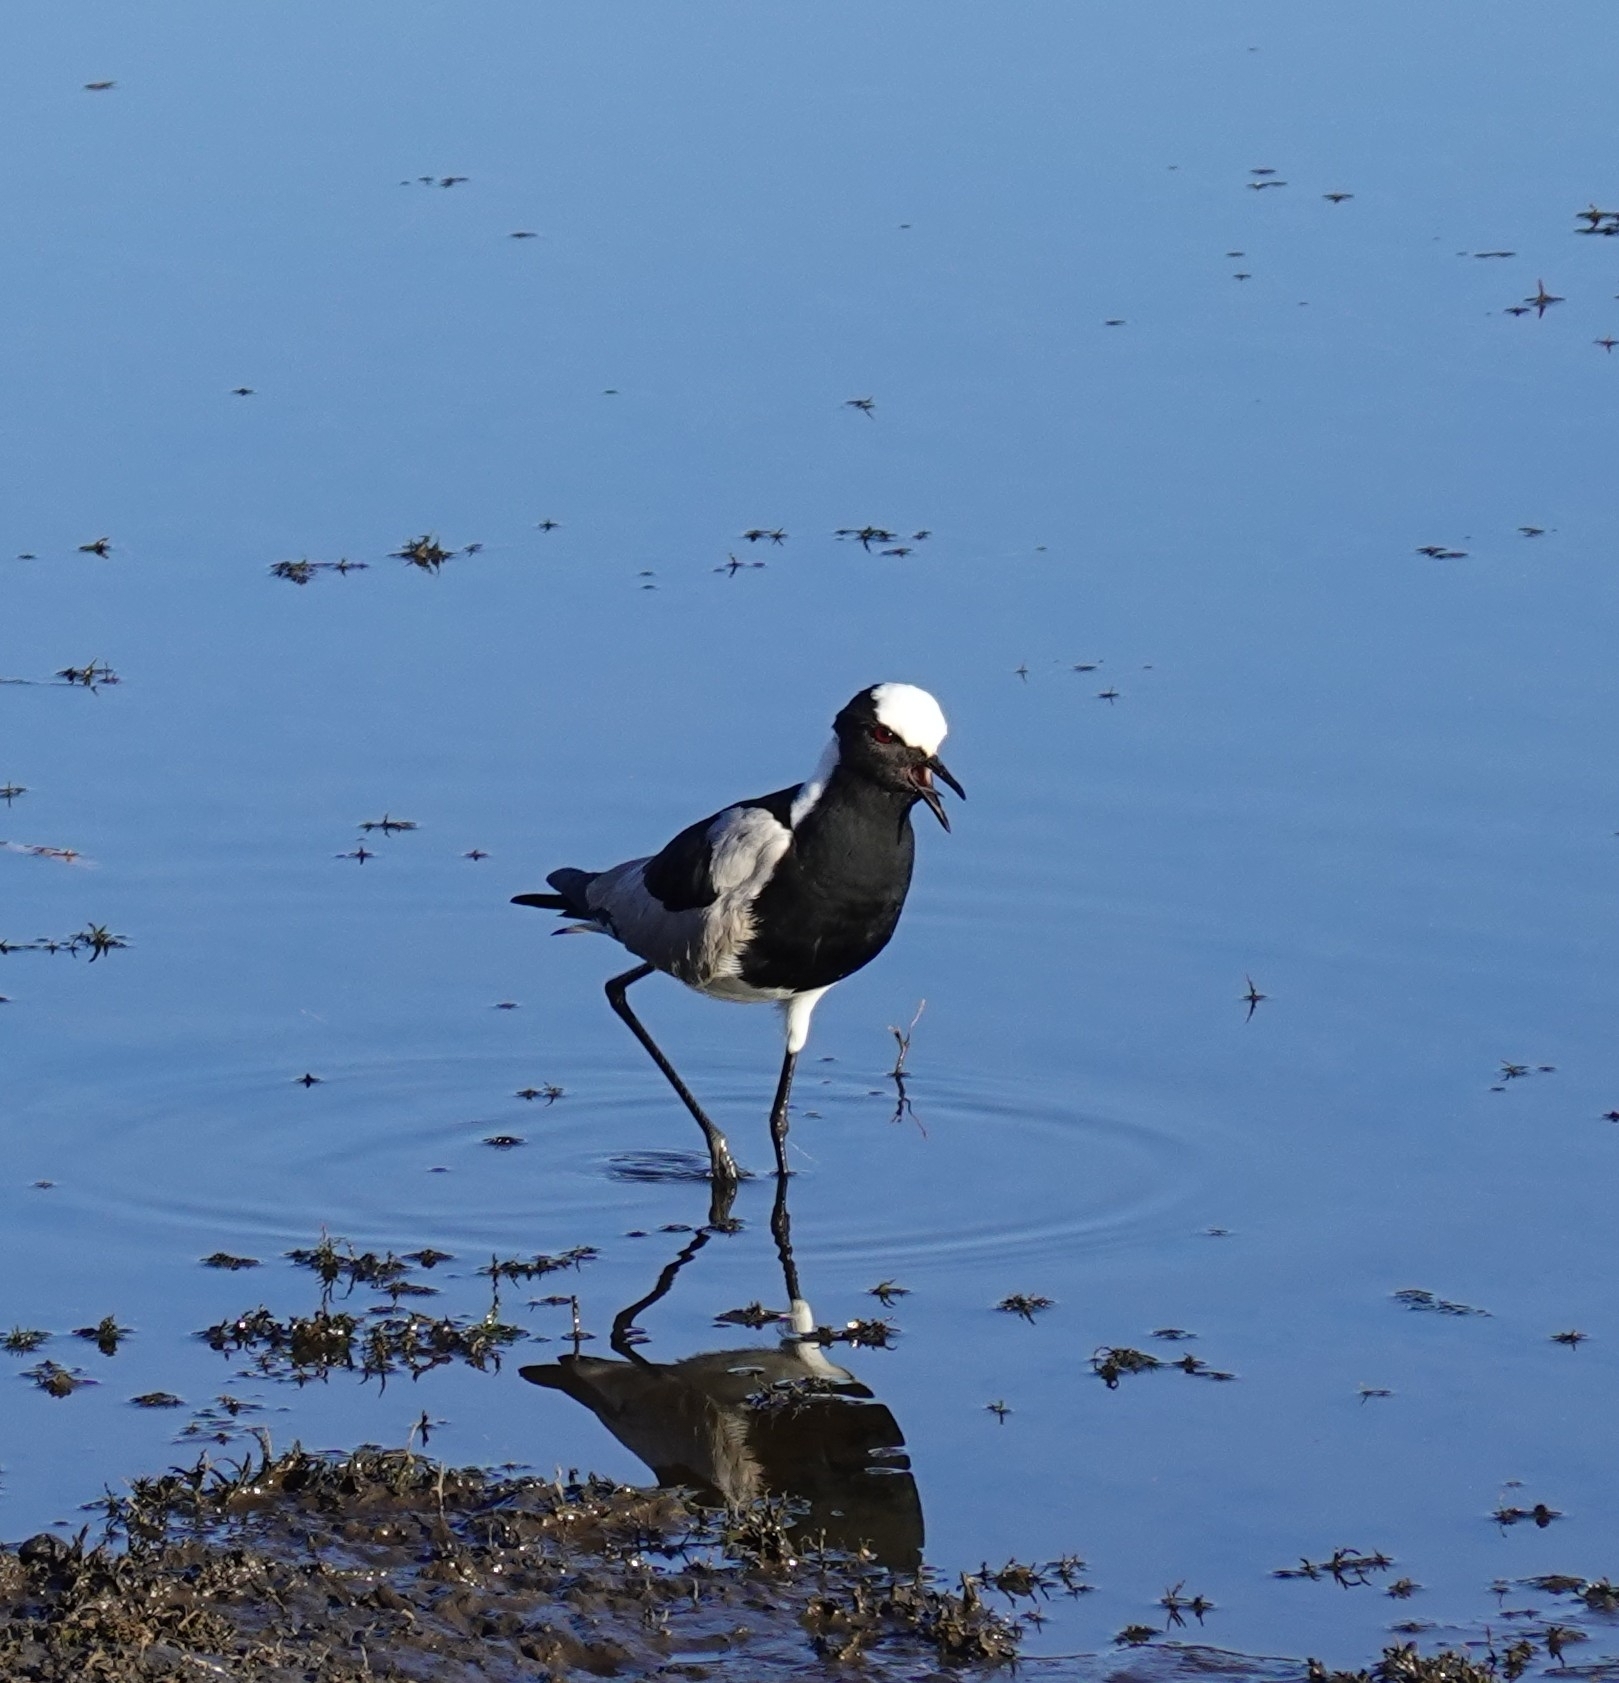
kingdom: Animalia
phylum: Chordata
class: Aves
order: Charadriiformes
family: Charadriidae
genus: Vanellus
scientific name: Vanellus armatus
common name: Blacksmith lapwing
